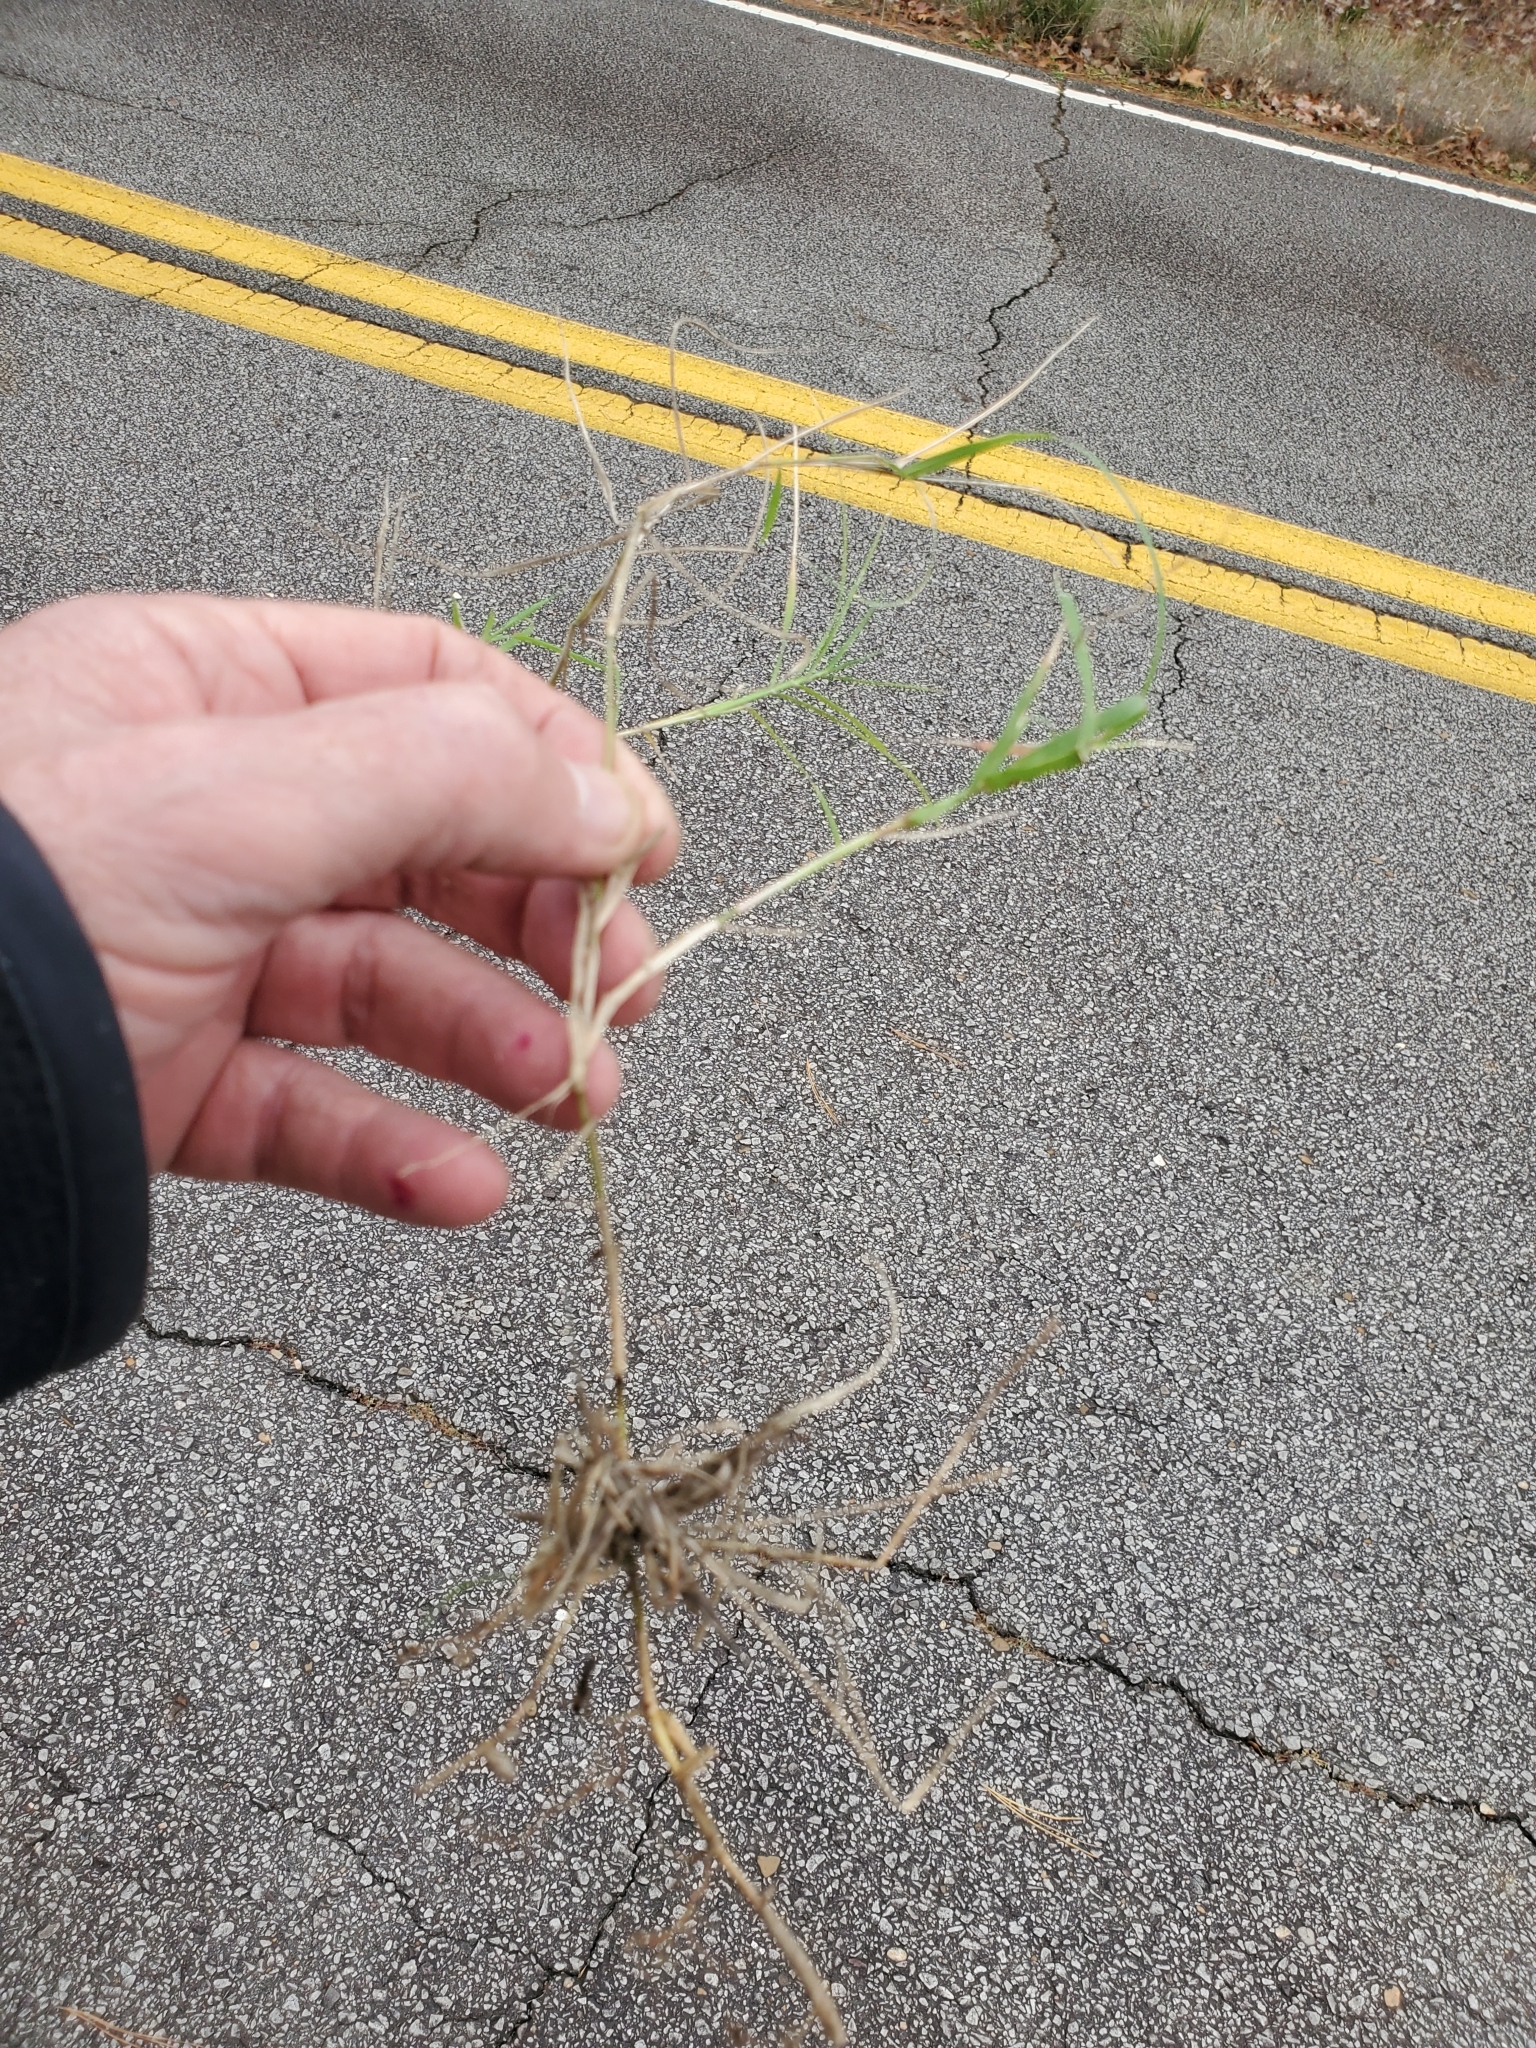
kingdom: Plantae
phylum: Tracheophyta
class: Liliopsida
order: Poales
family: Poaceae
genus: Cynodon
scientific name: Cynodon dactylon
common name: Bermuda grass
